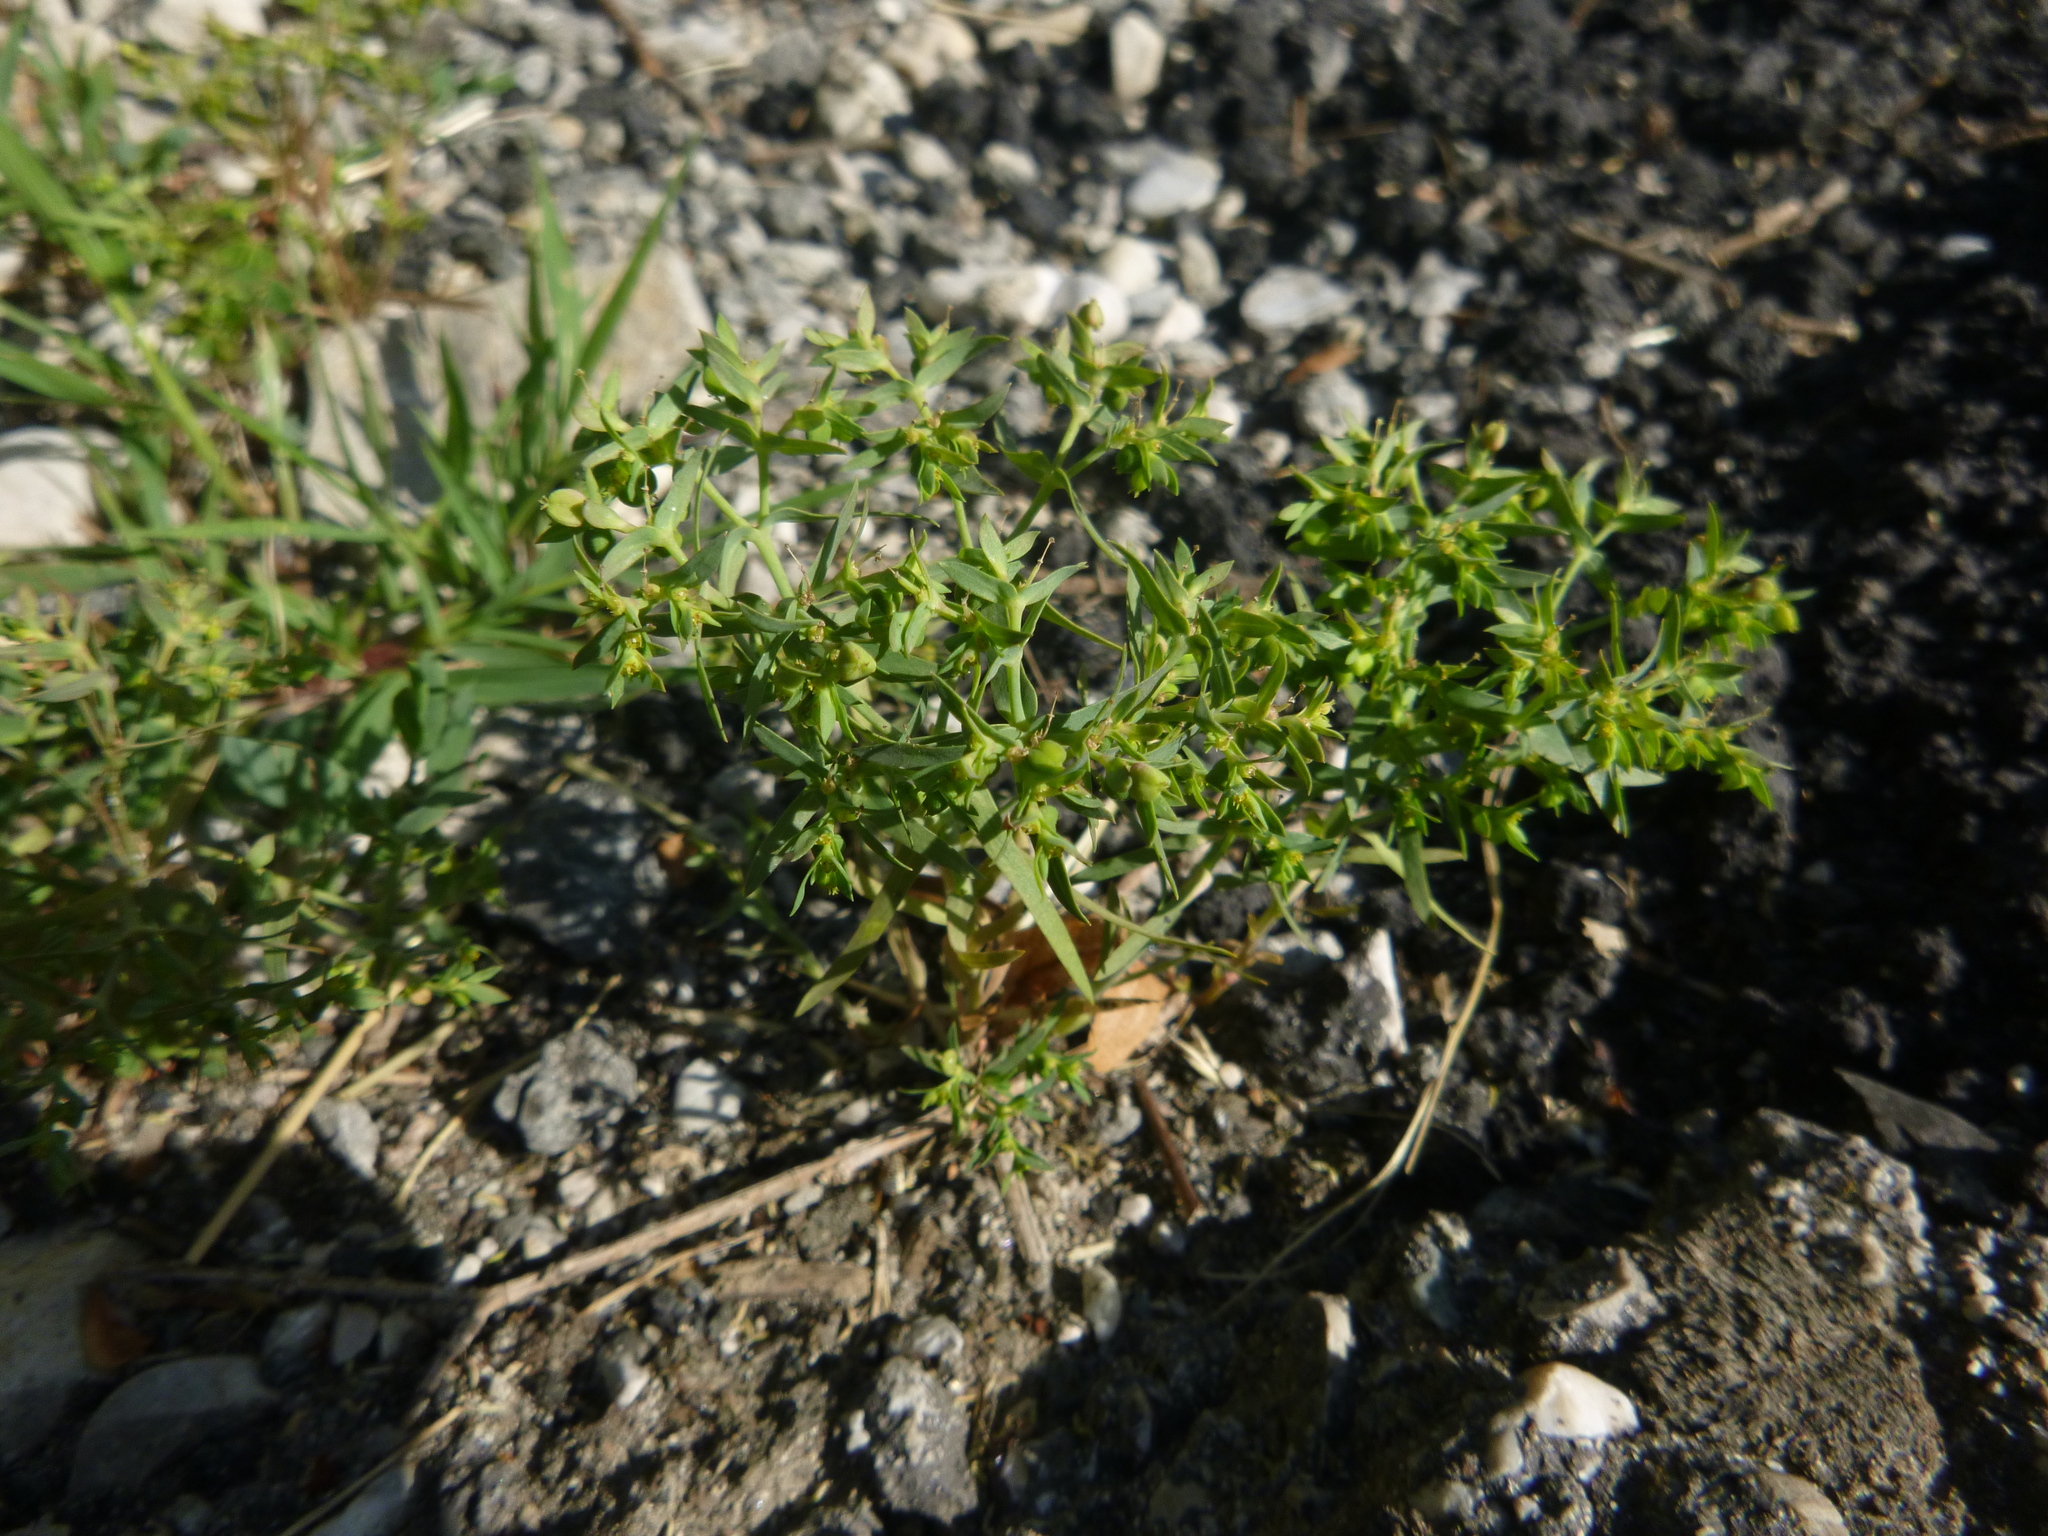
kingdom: Plantae
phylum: Tracheophyta
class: Magnoliopsida
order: Malpighiales
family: Euphorbiaceae
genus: Euphorbia
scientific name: Euphorbia exigua
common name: Dwarf spurge
